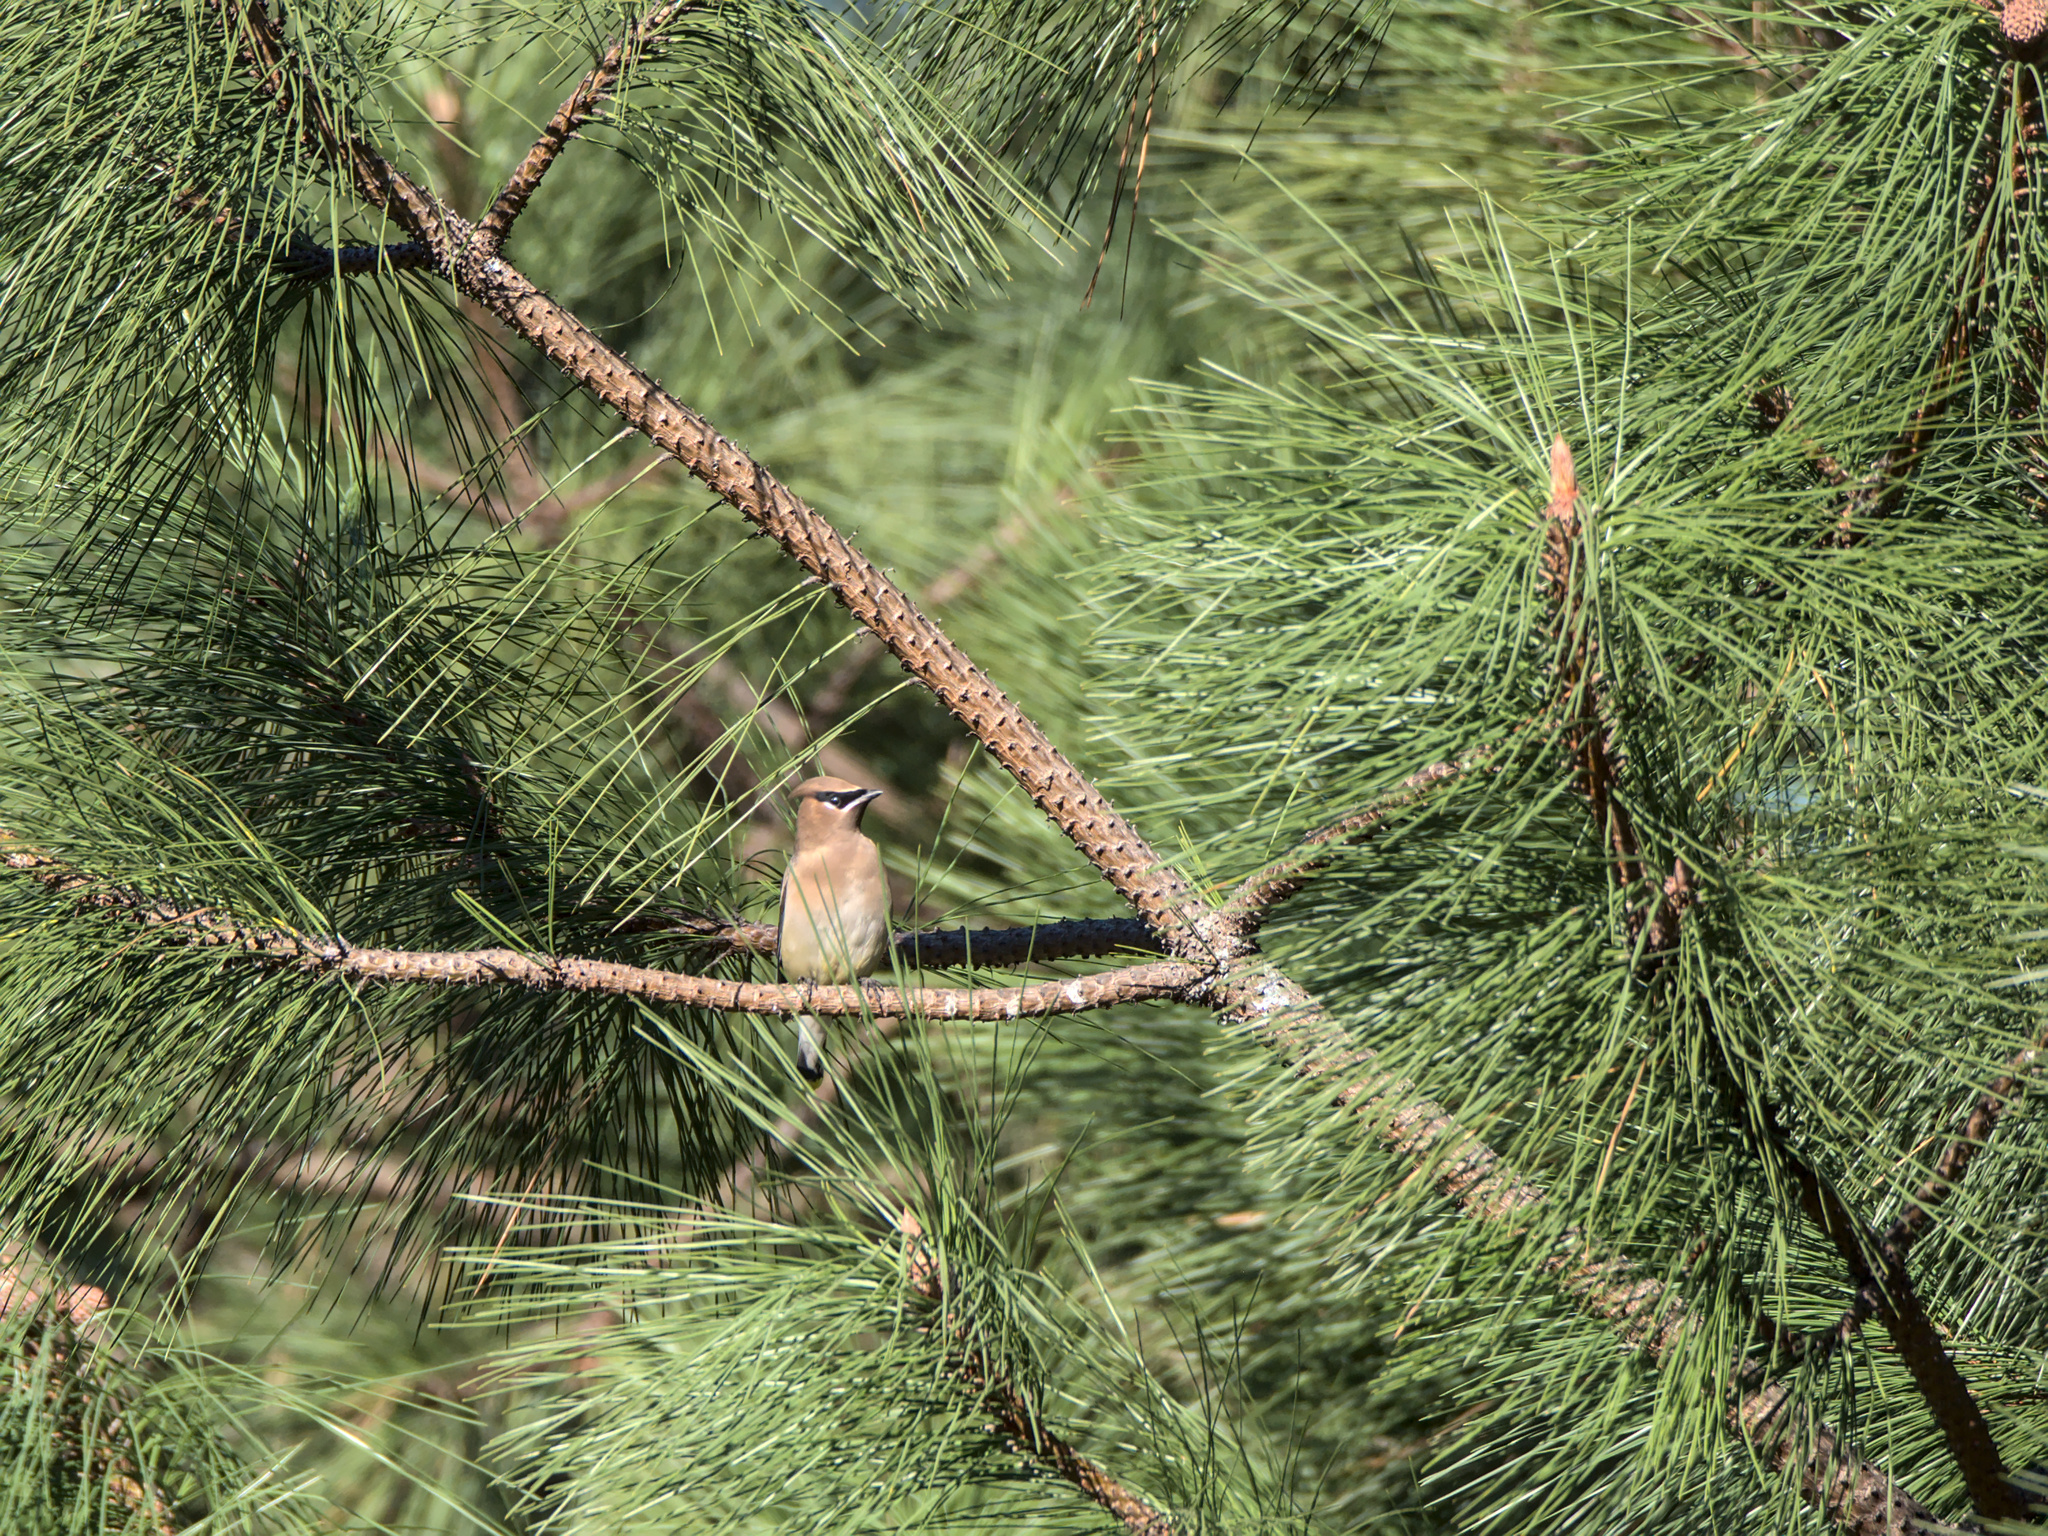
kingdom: Animalia
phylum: Chordata
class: Aves
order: Passeriformes
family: Bombycillidae
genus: Bombycilla
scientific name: Bombycilla cedrorum
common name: Cedar waxwing
